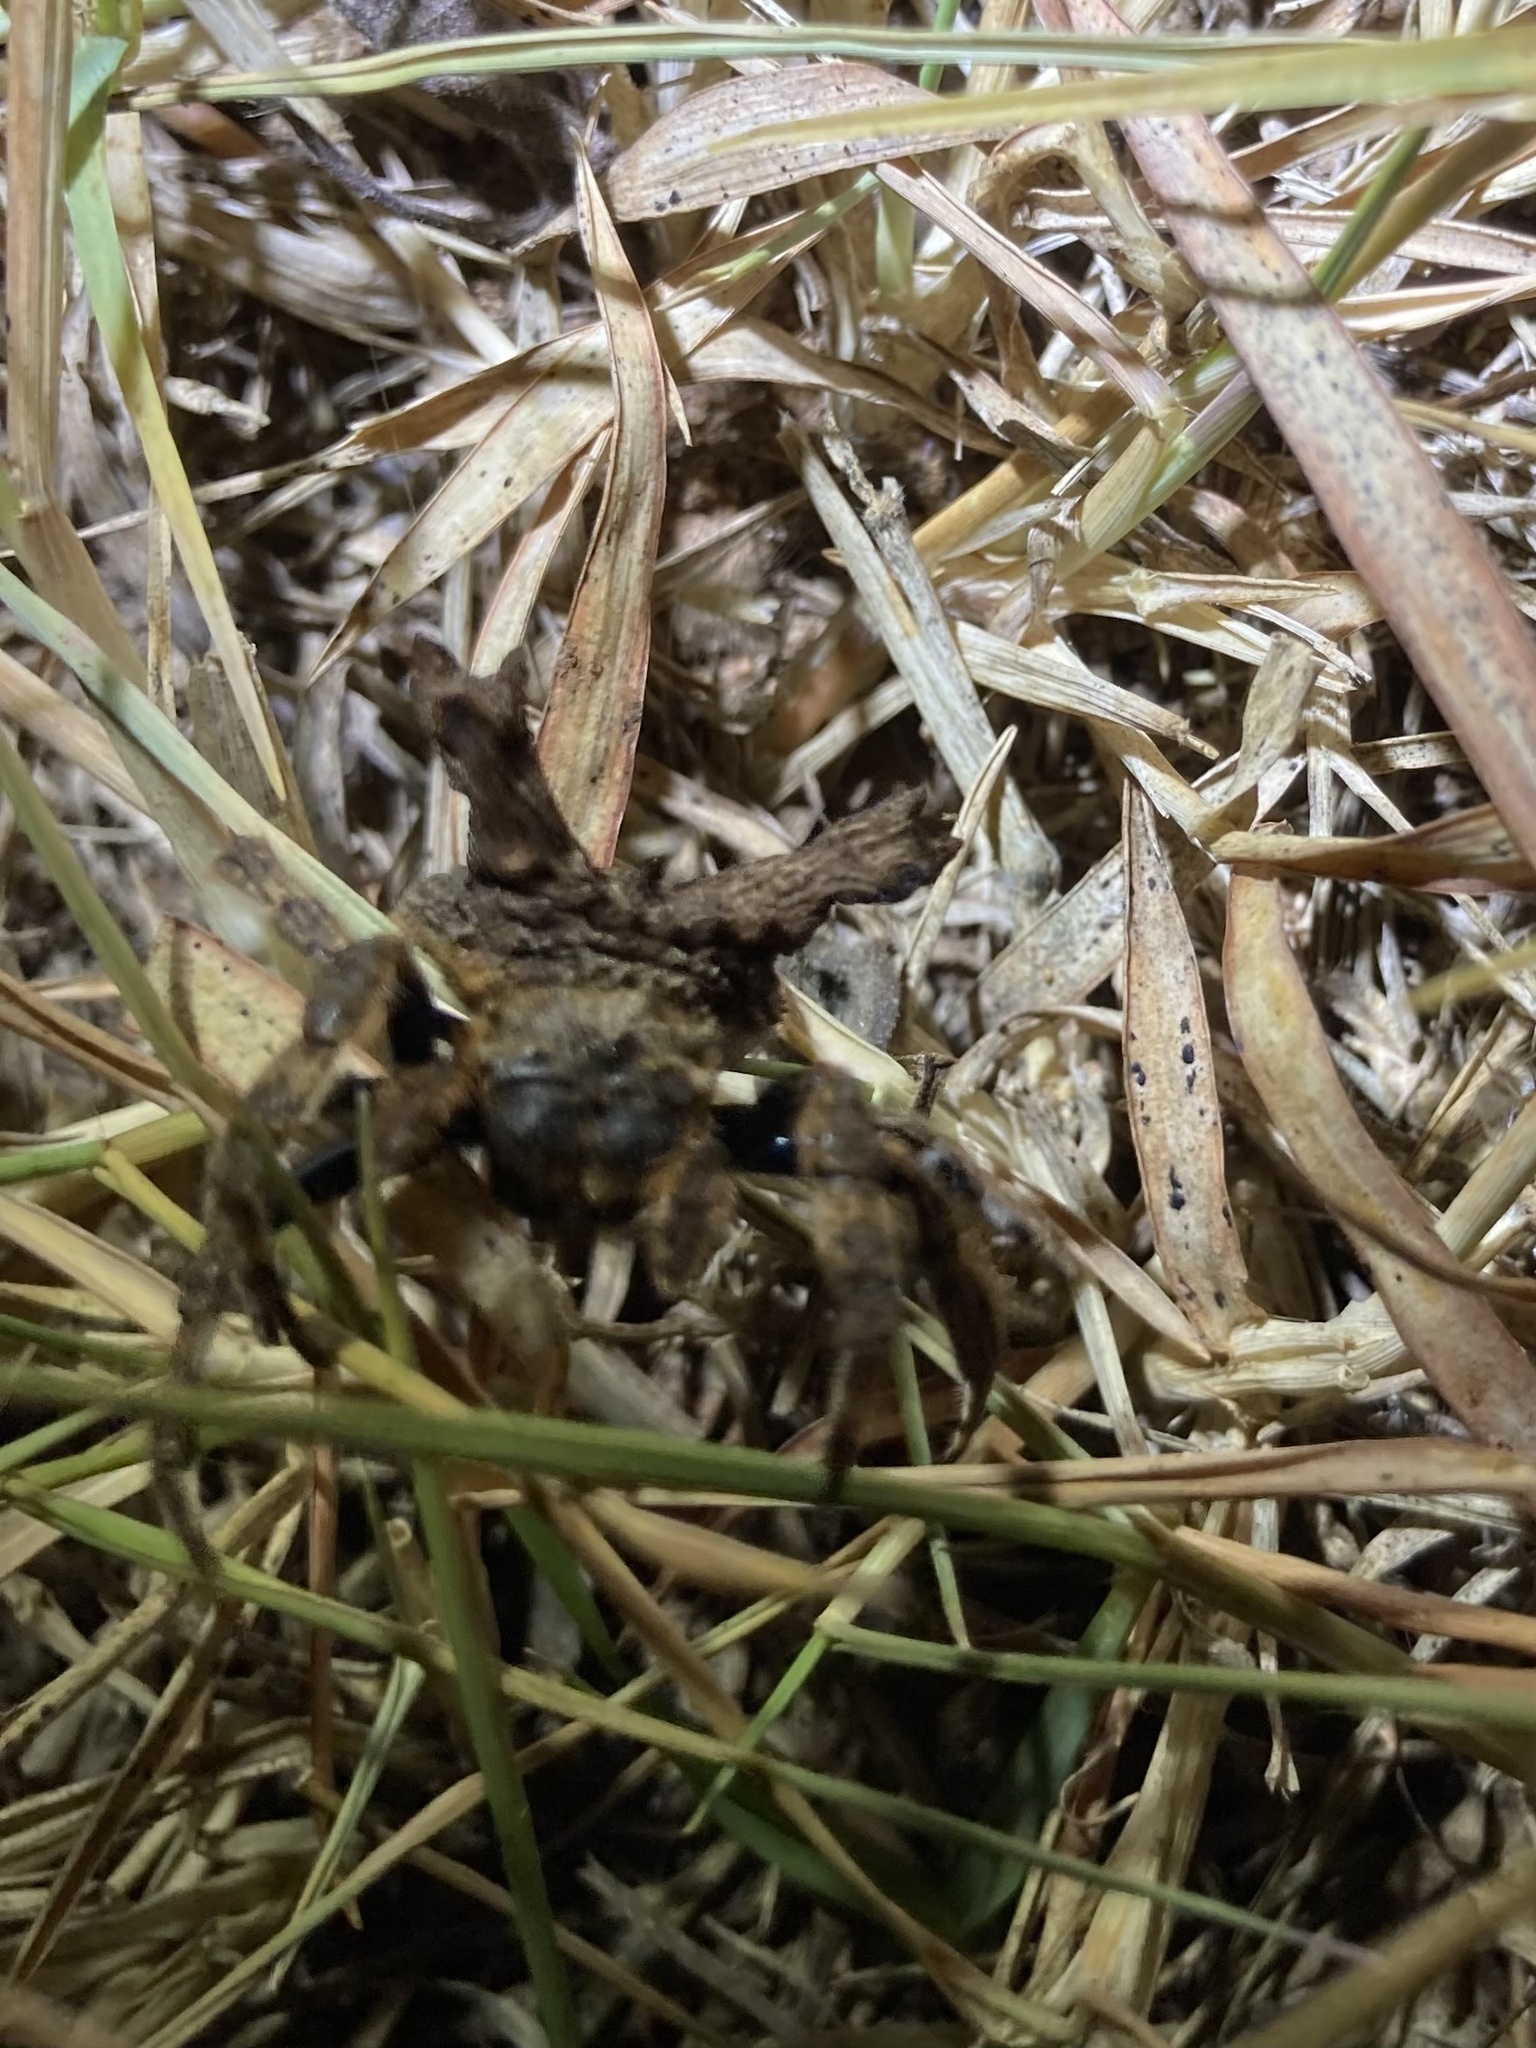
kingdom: Animalia
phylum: Arthropoda
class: Arachnida
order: Araneae
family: Araneidae
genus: Caerostris
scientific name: Caerostris sexcuspidata
